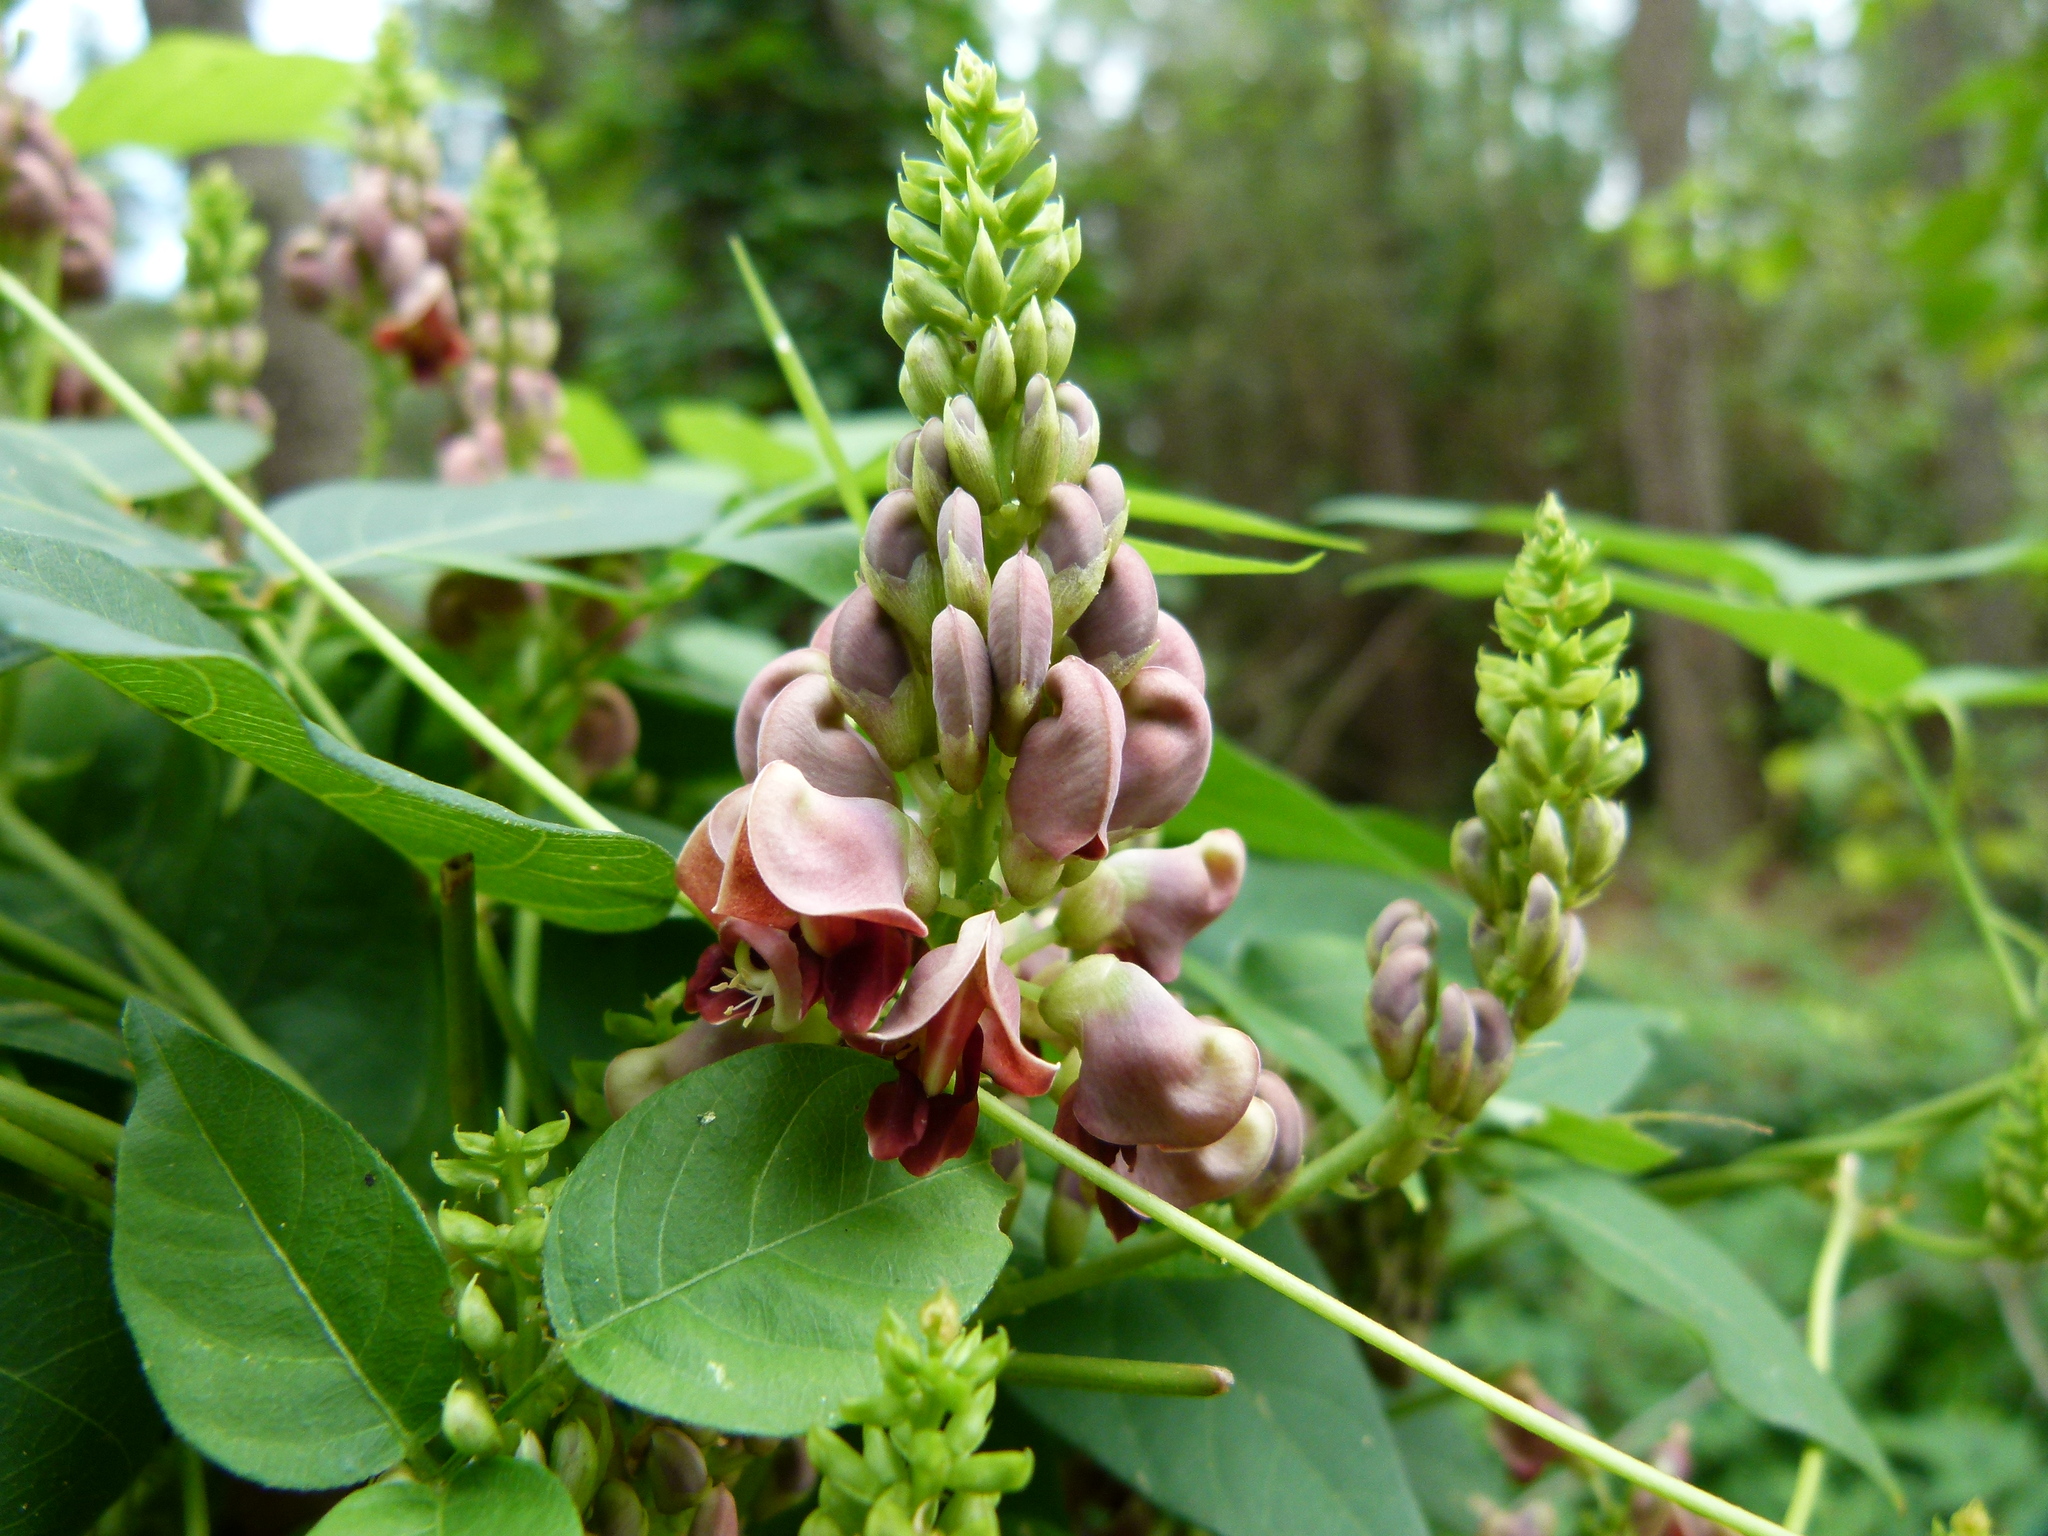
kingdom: Plantae
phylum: Tracheophyta
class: Magnoliopsida
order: Fabales
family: Fabaceae
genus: Apios
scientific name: Apios americana
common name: American potato-bean
